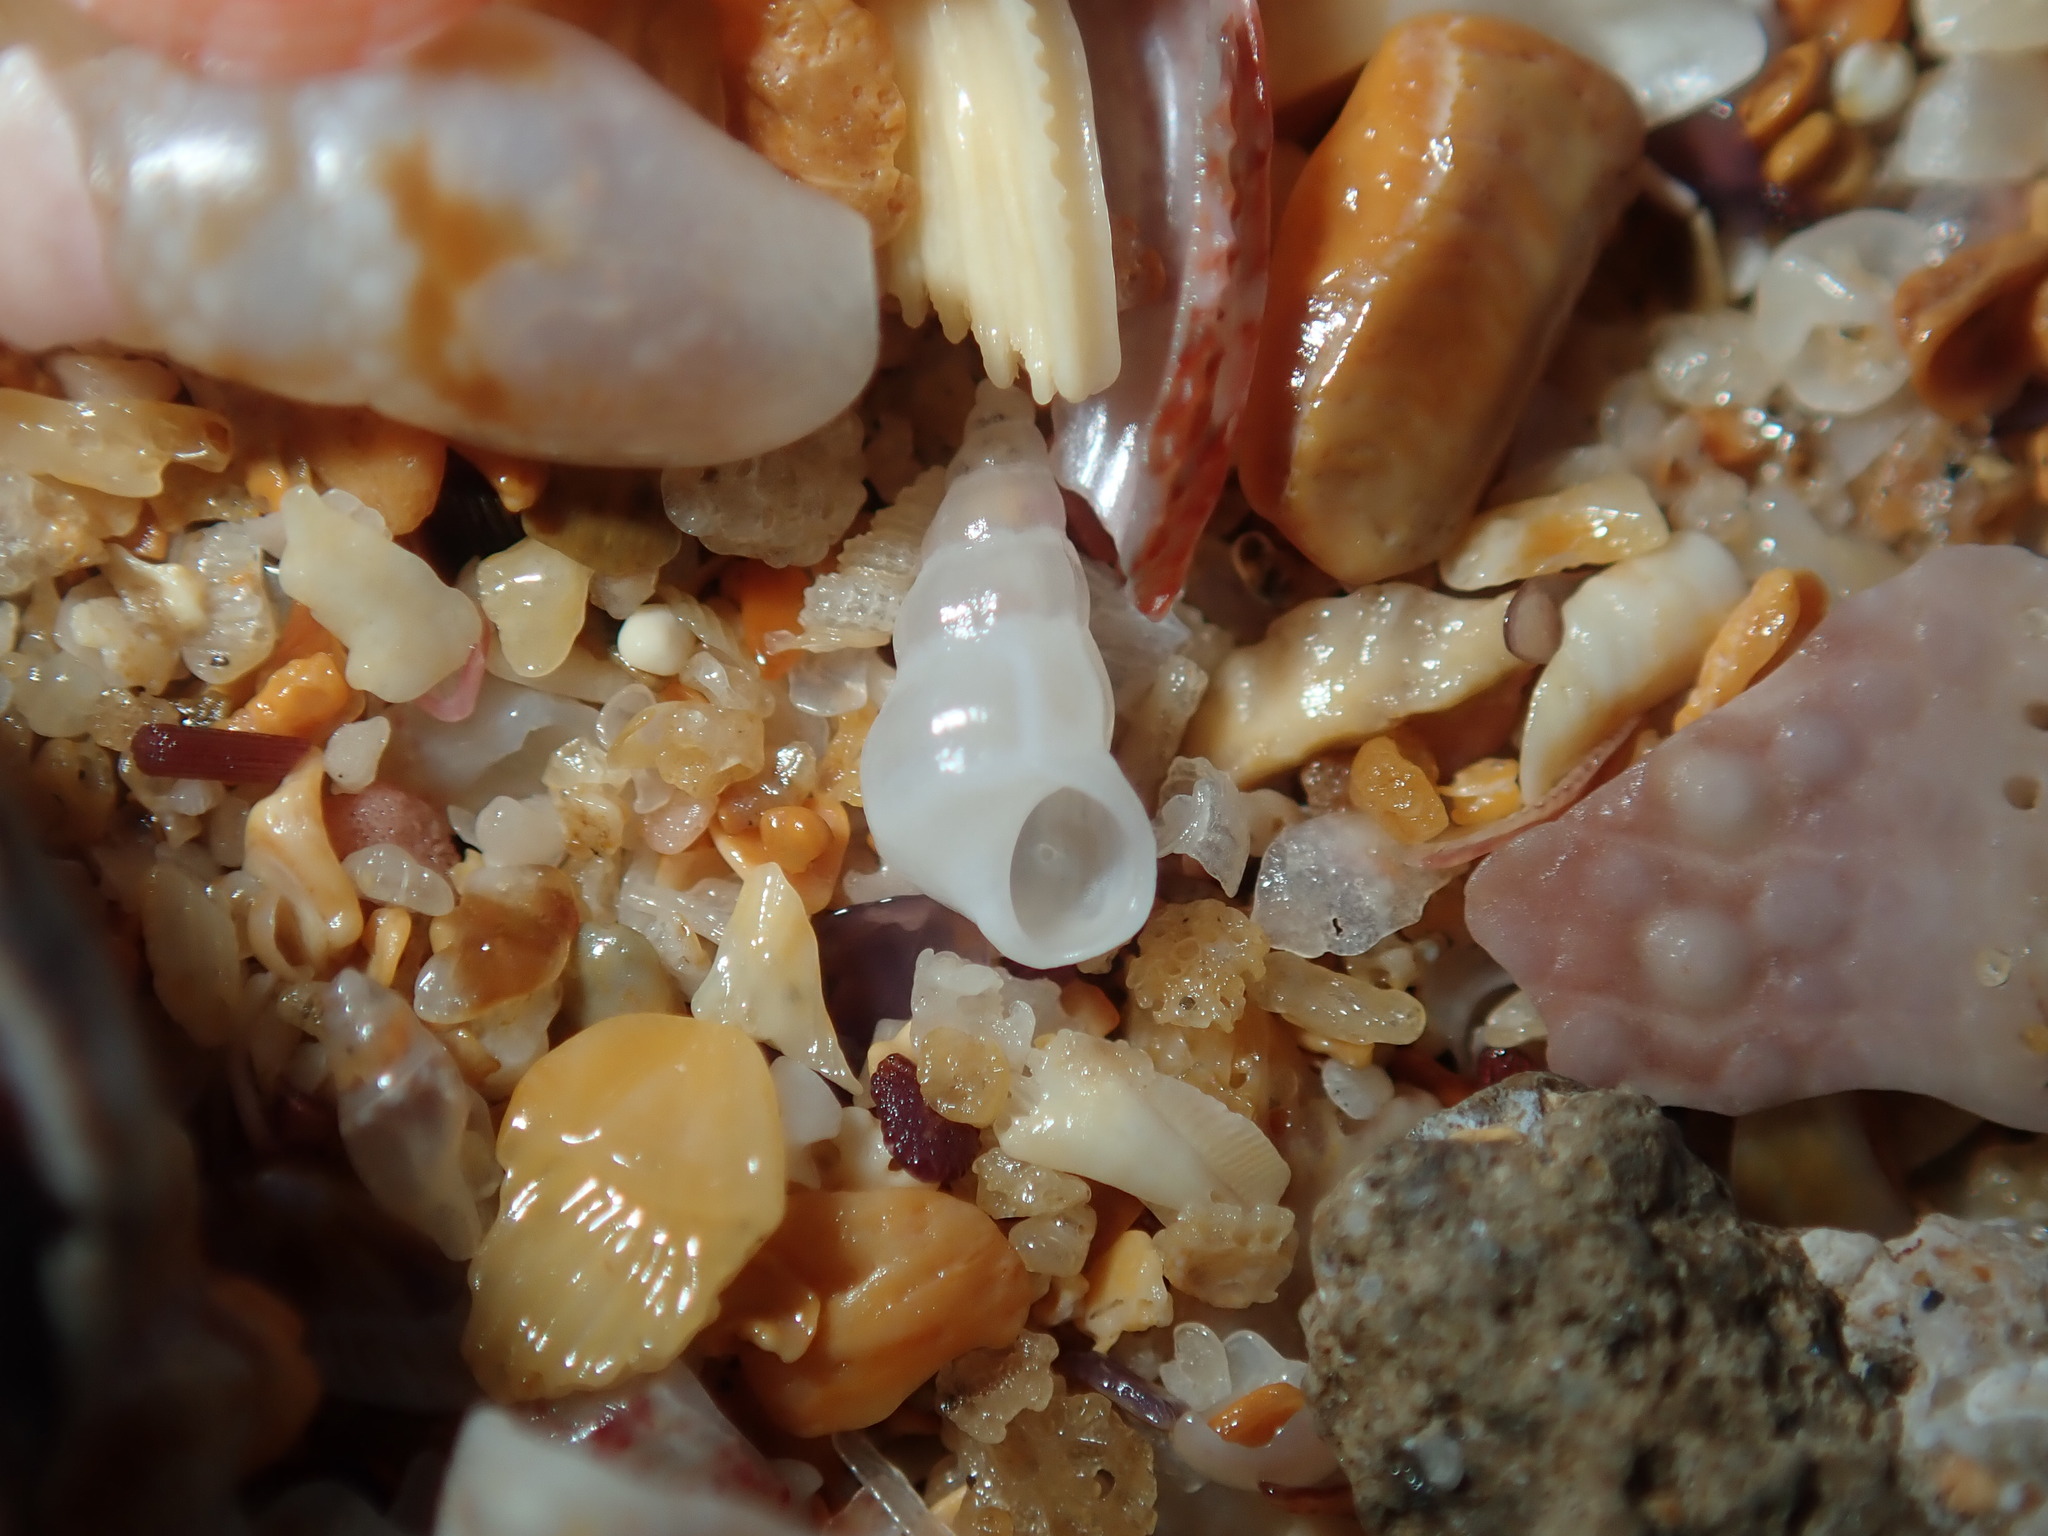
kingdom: Animalia
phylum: Mollusca
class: Gastropoda
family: Epitoniidae
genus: Opalia
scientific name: Opalia ballinensis
